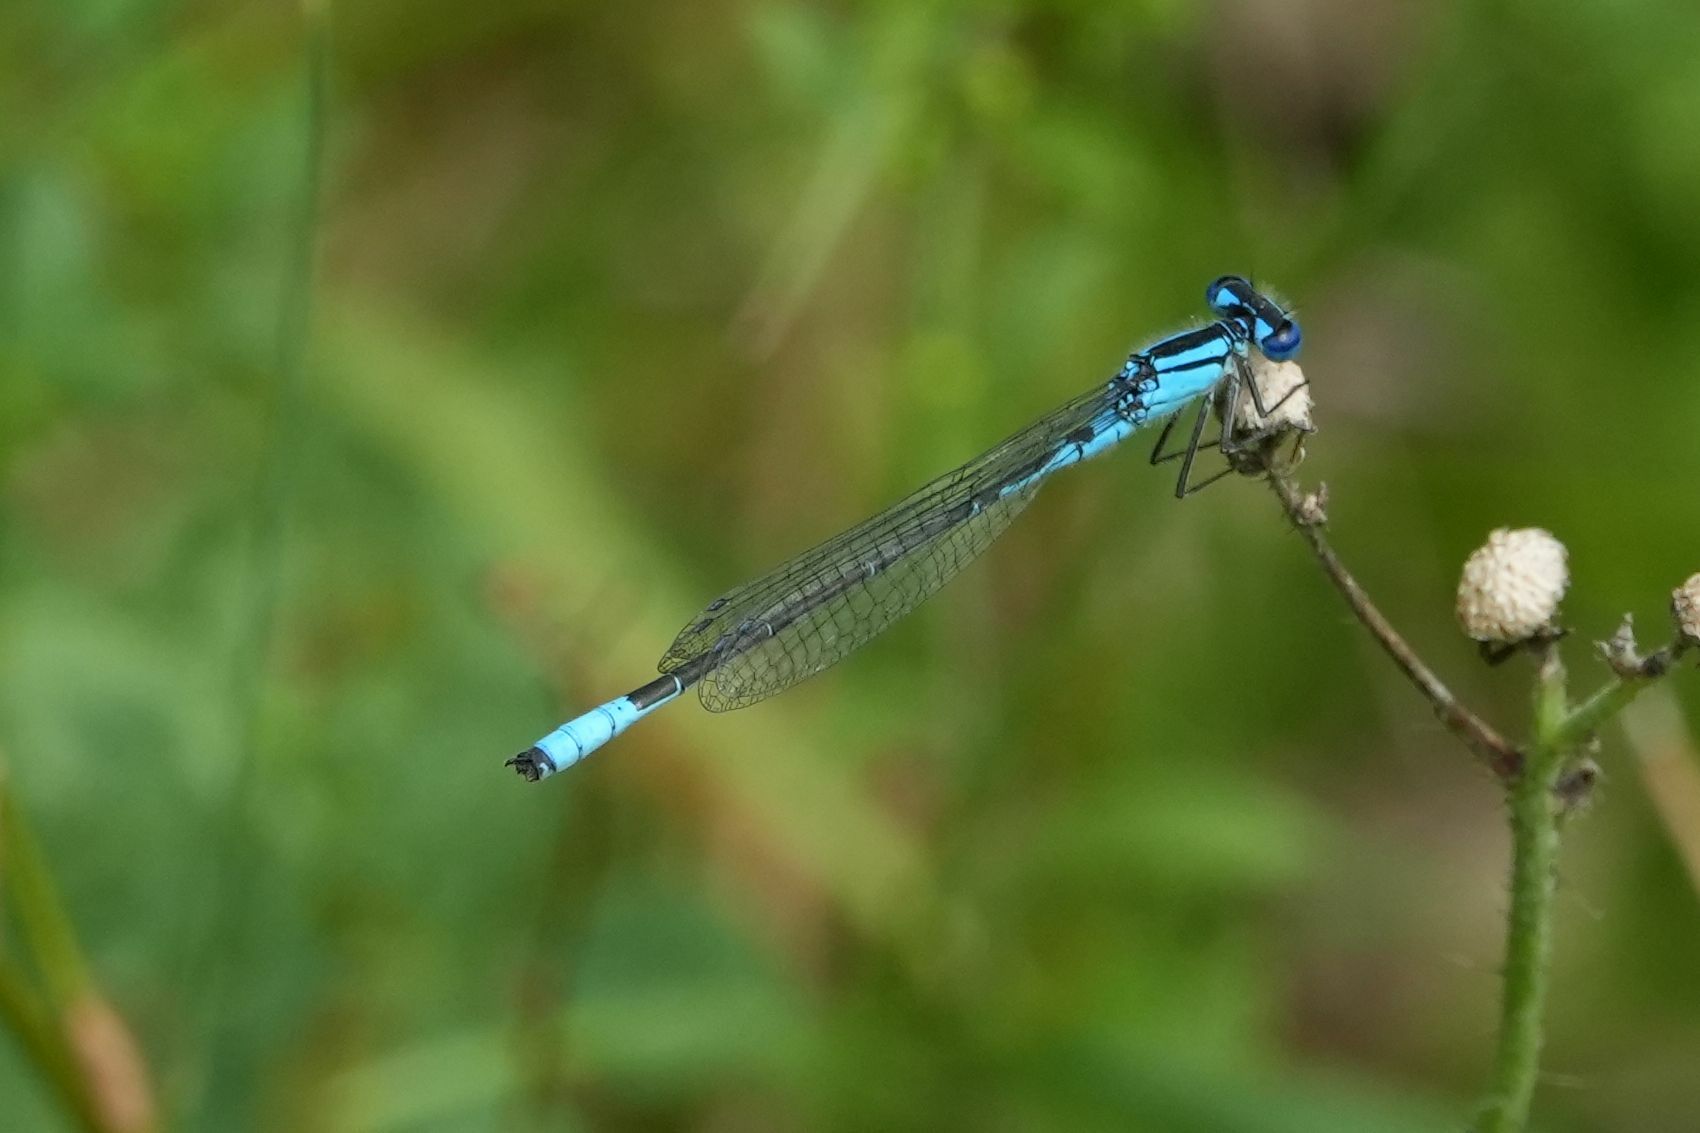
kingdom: Animalia
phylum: Arthropoda
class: Insecta
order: Odonata
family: Coenagrionidae
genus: Enallagma
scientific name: Enallagma aspersum
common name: Azure bluet
